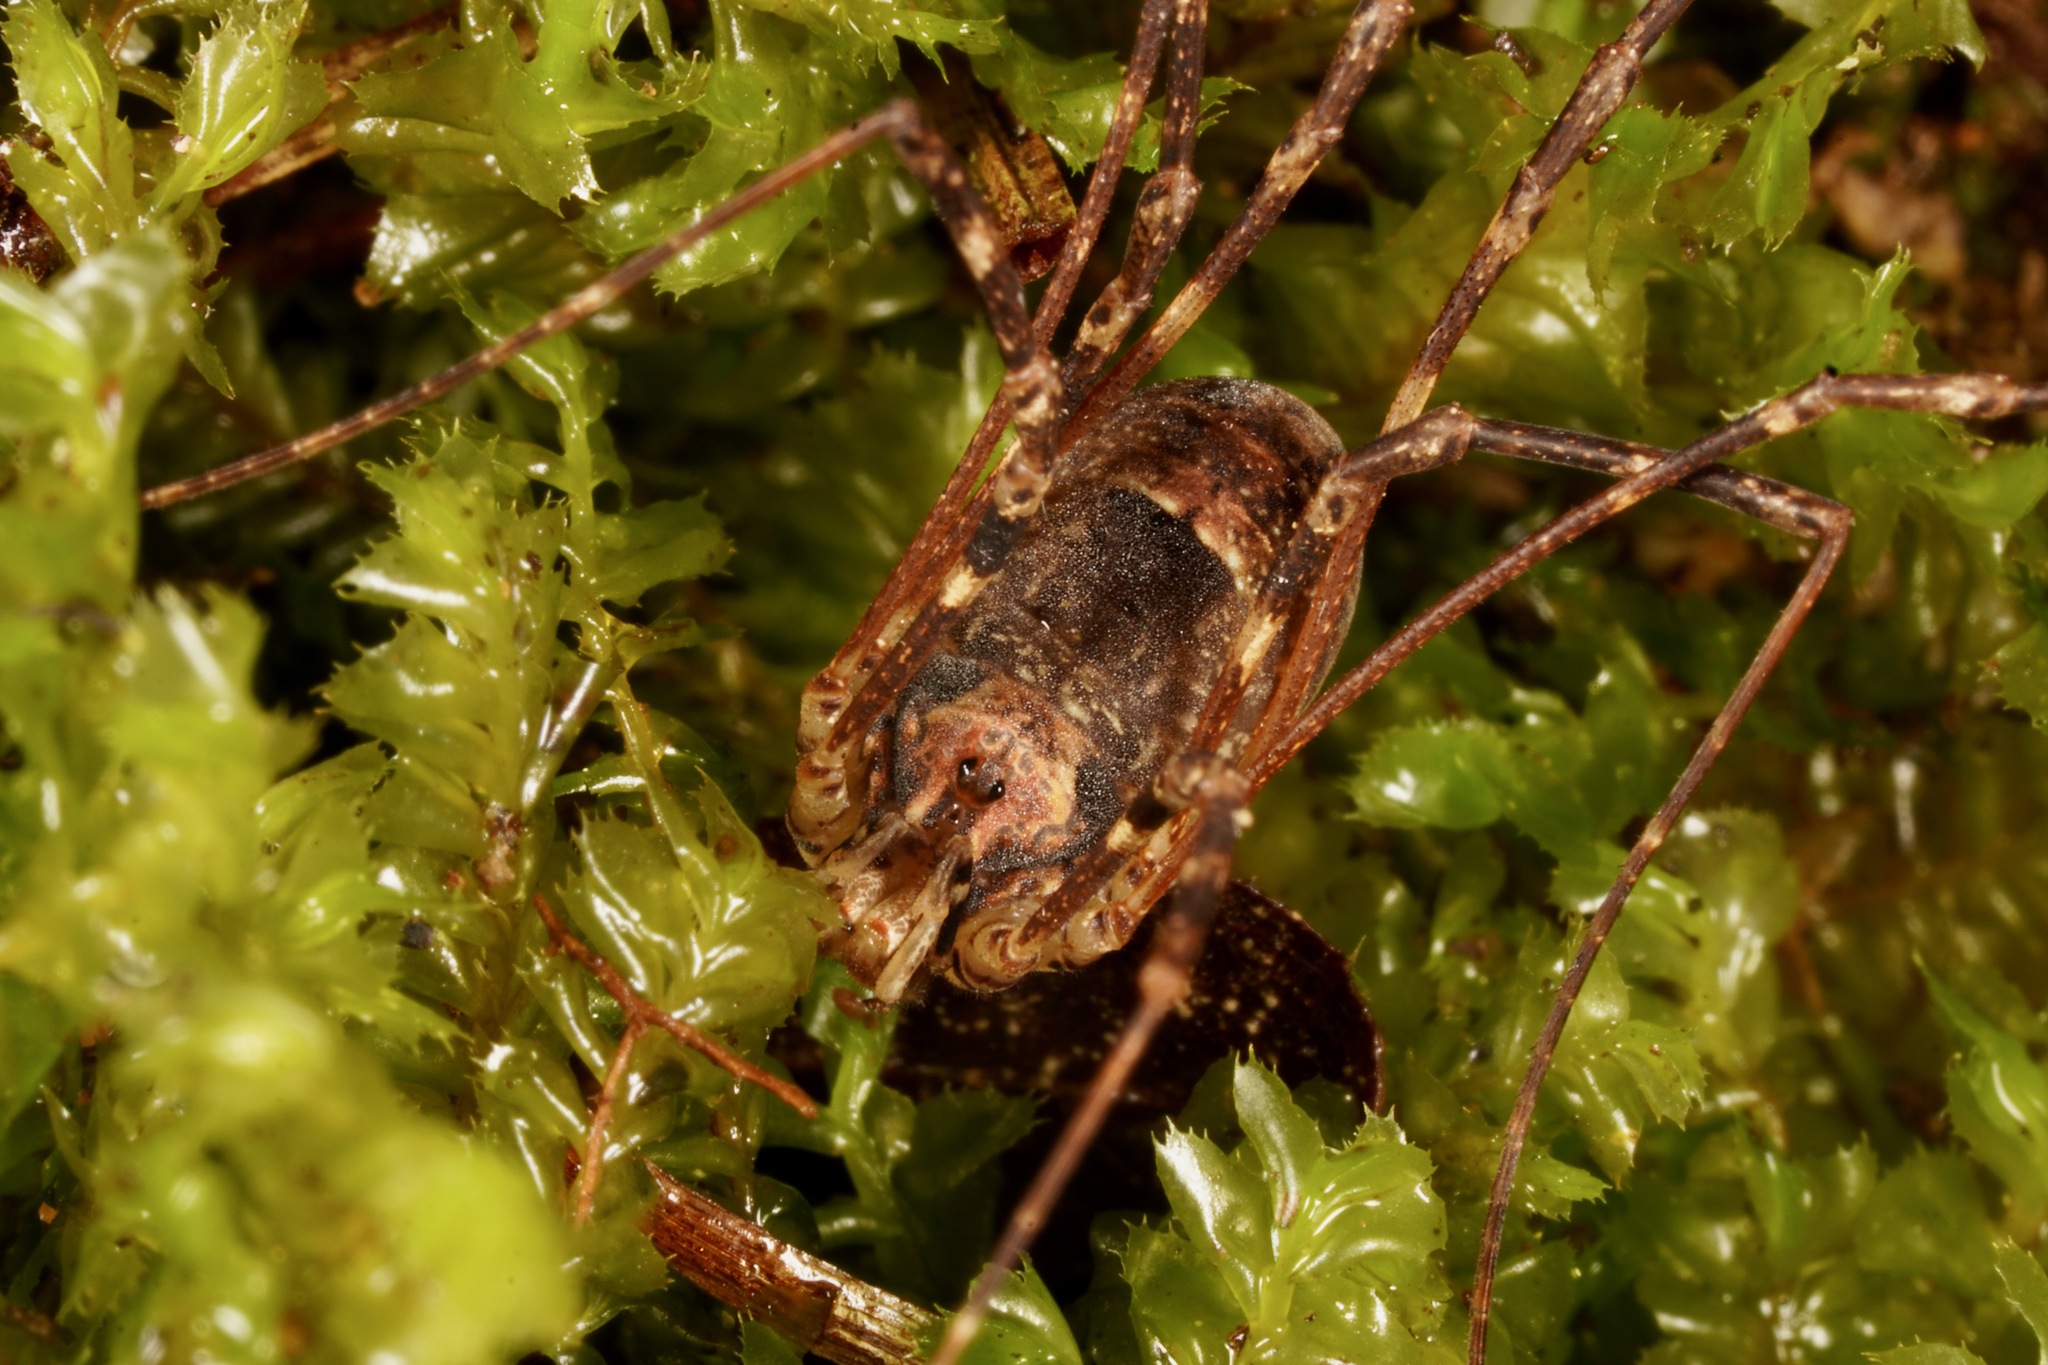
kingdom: Animalia
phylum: Arthropoda
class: Arachnida
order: Opiliones
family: Neopilionidae
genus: Forsteropsalis
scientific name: Forsteropsalis inconstans
